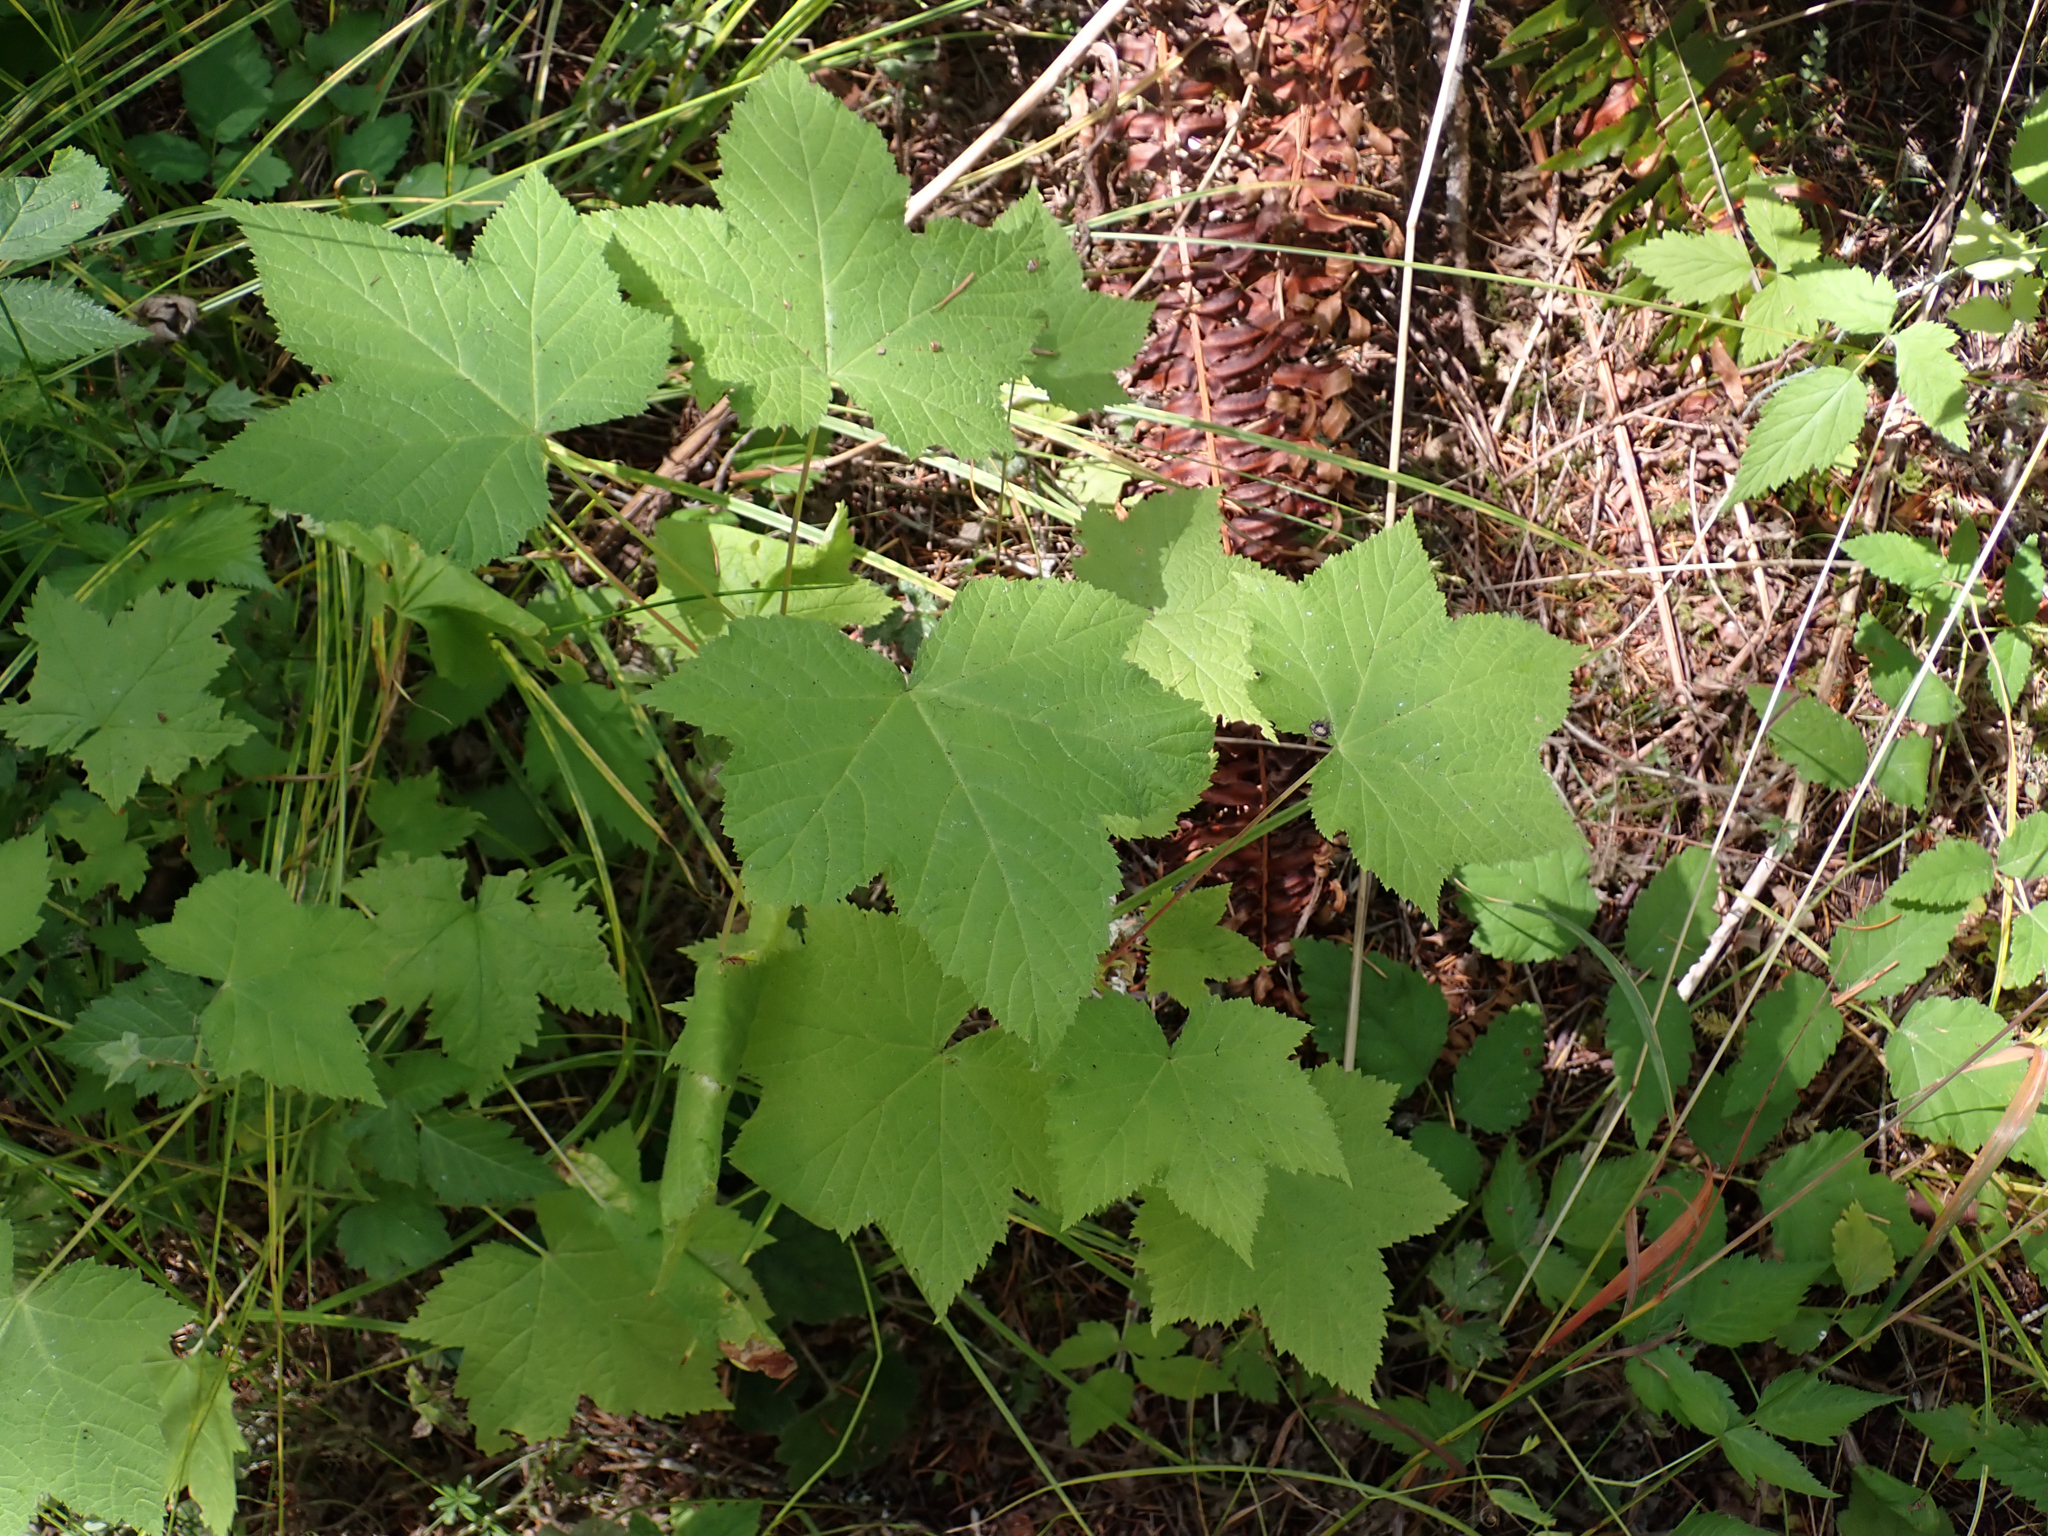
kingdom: Plantae
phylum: Tracheophyta
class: Magnoliopsida
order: Rosales
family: Rosaceae
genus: Rubus
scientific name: Rubus parviflorus
